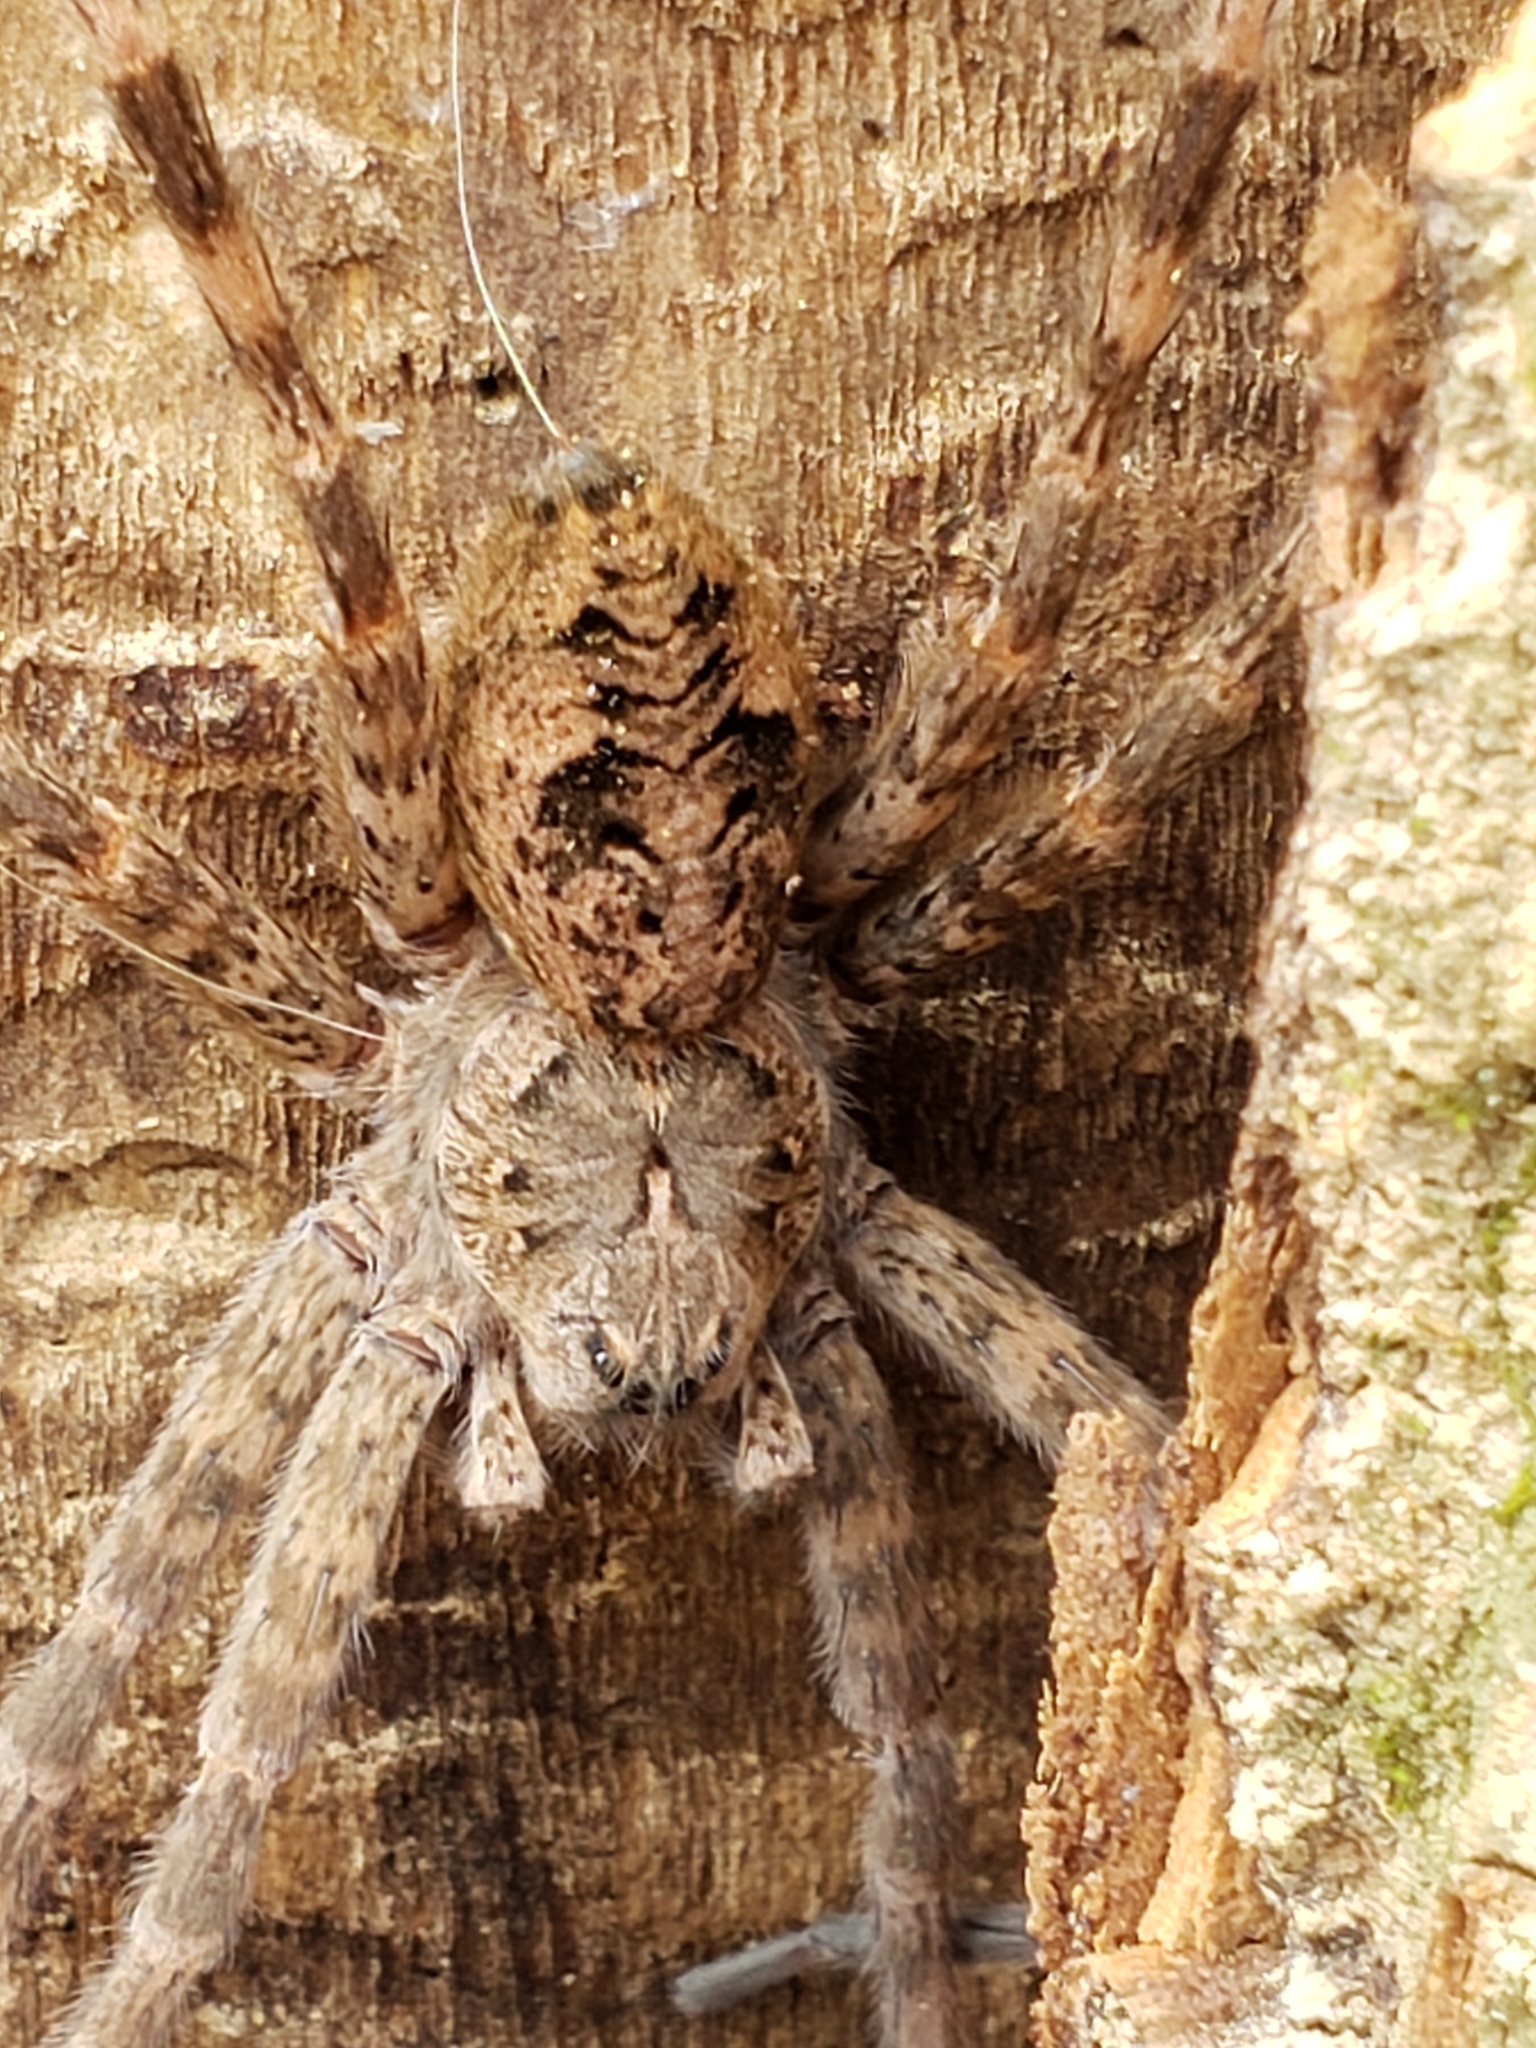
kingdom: Animalia
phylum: Arthropoda
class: Arachnida
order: Araneae
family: Pisauridae
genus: Dolomedes
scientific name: Dolomedes tenebrosus
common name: Dark fishing spider
